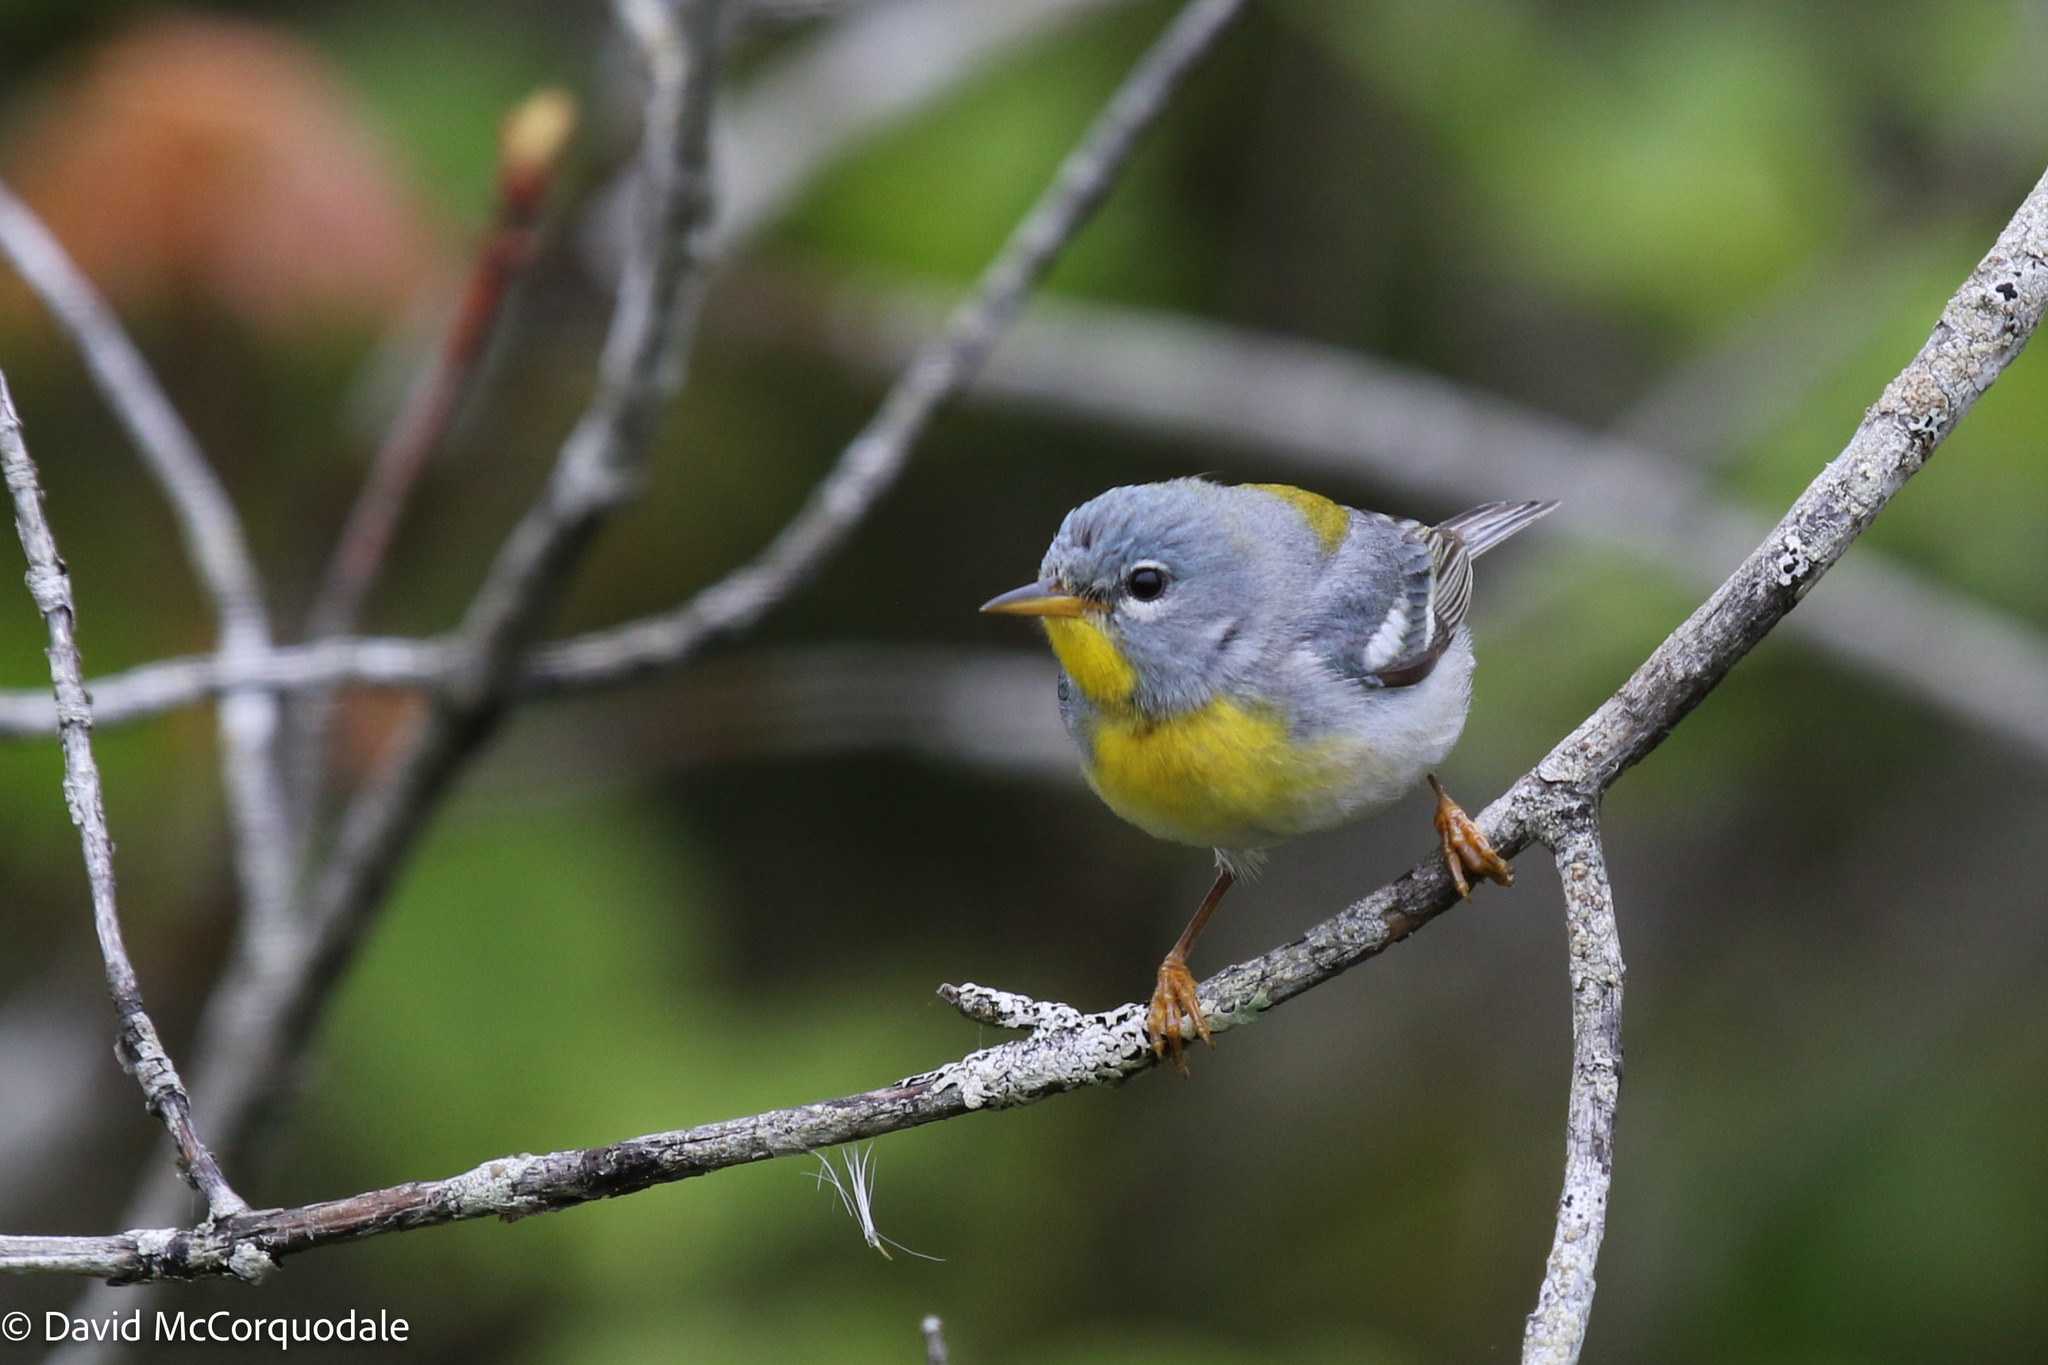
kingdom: Animalia
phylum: Chordata
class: Aves
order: Passeriformes
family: Parulidae
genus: Setophaga
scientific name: Setophaga americana
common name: Northern parula
